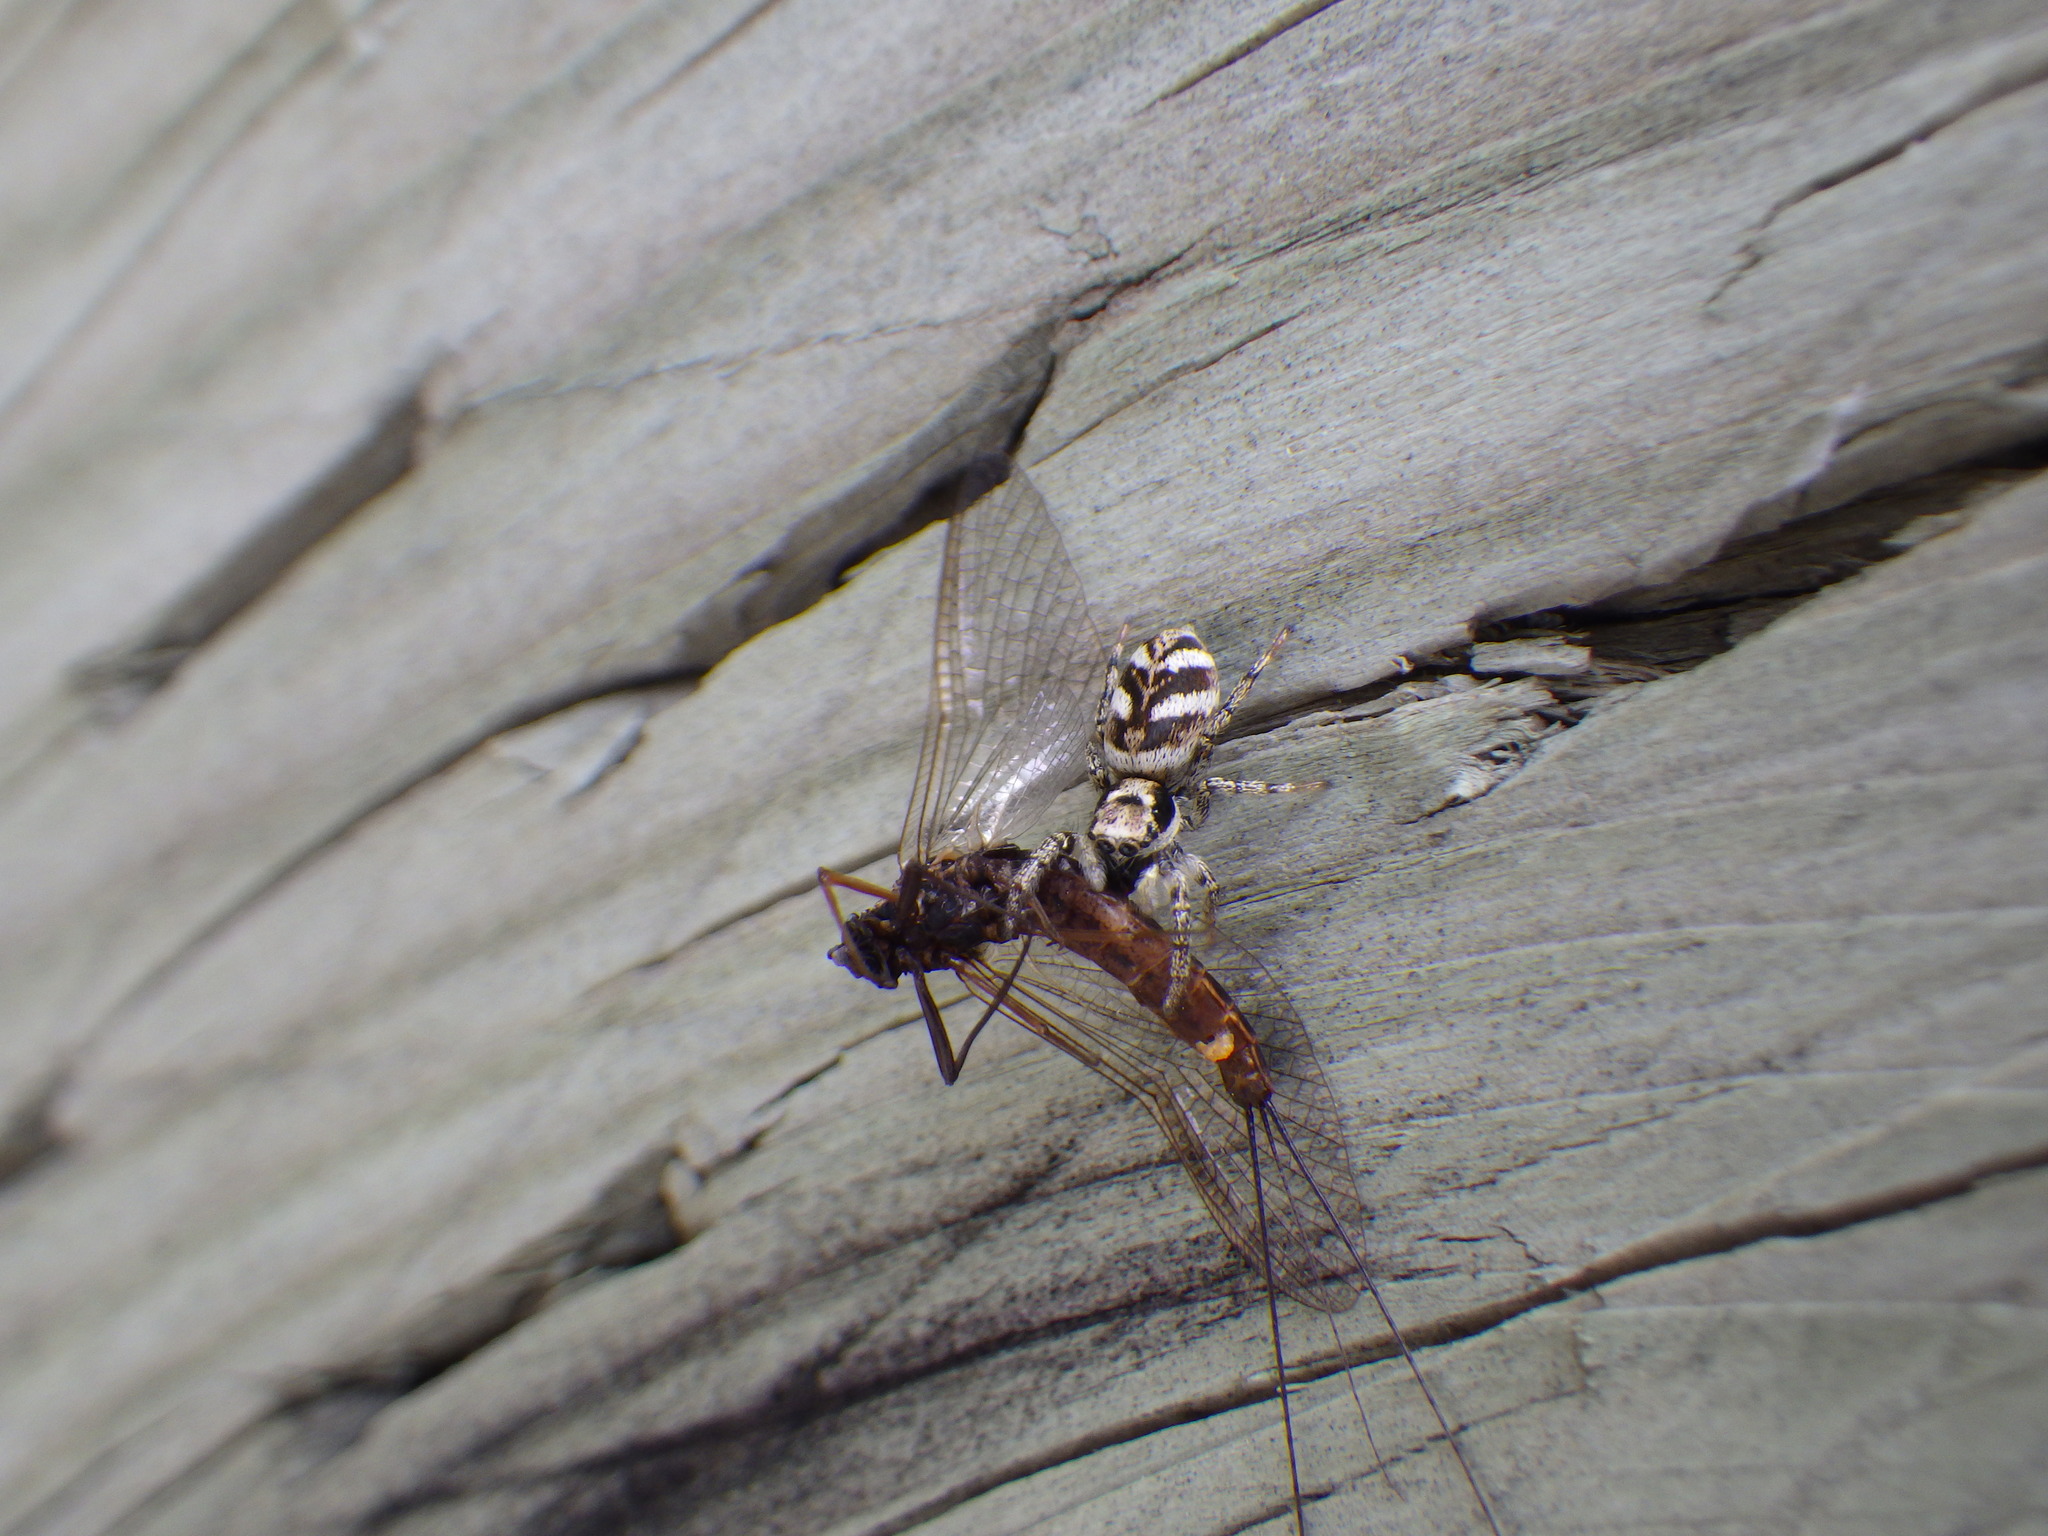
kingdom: Animalia
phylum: Arthropoda
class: Arachnida
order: Araneae
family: Salticidae
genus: Salticus
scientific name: Salticus scenicus
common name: Zebra jumper
